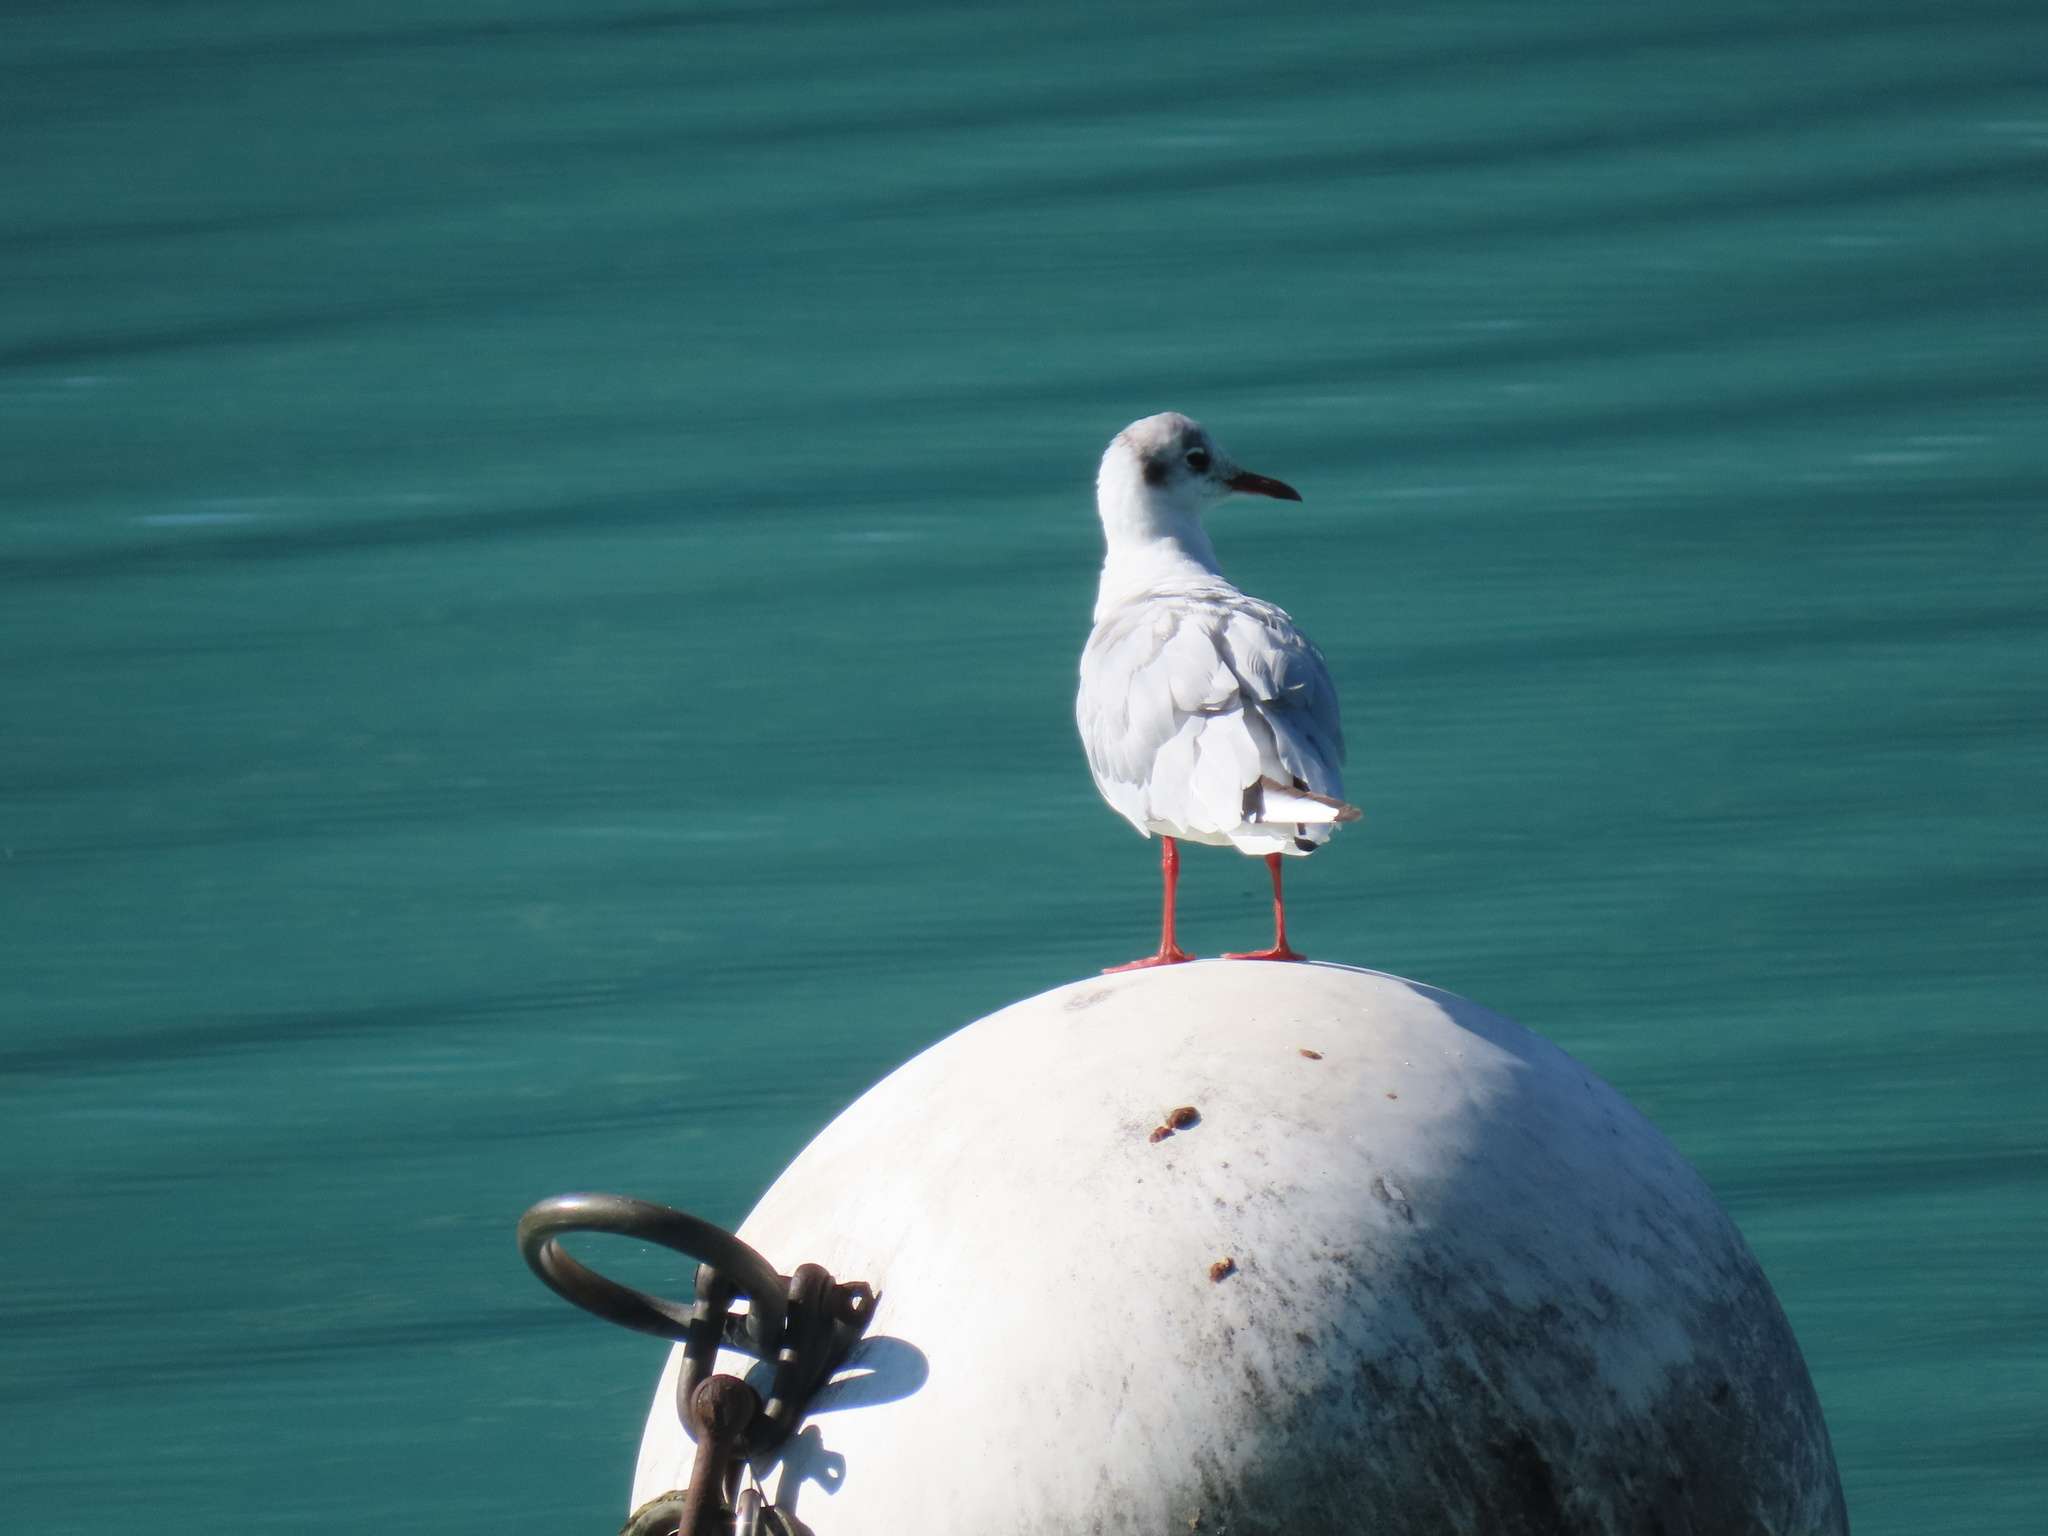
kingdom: Animalia
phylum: Chordata
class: Aves
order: Charadriiformes
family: Laridae
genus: Chroicocephalus
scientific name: Chroicocephalus ridibundus
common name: Black-headed gull
